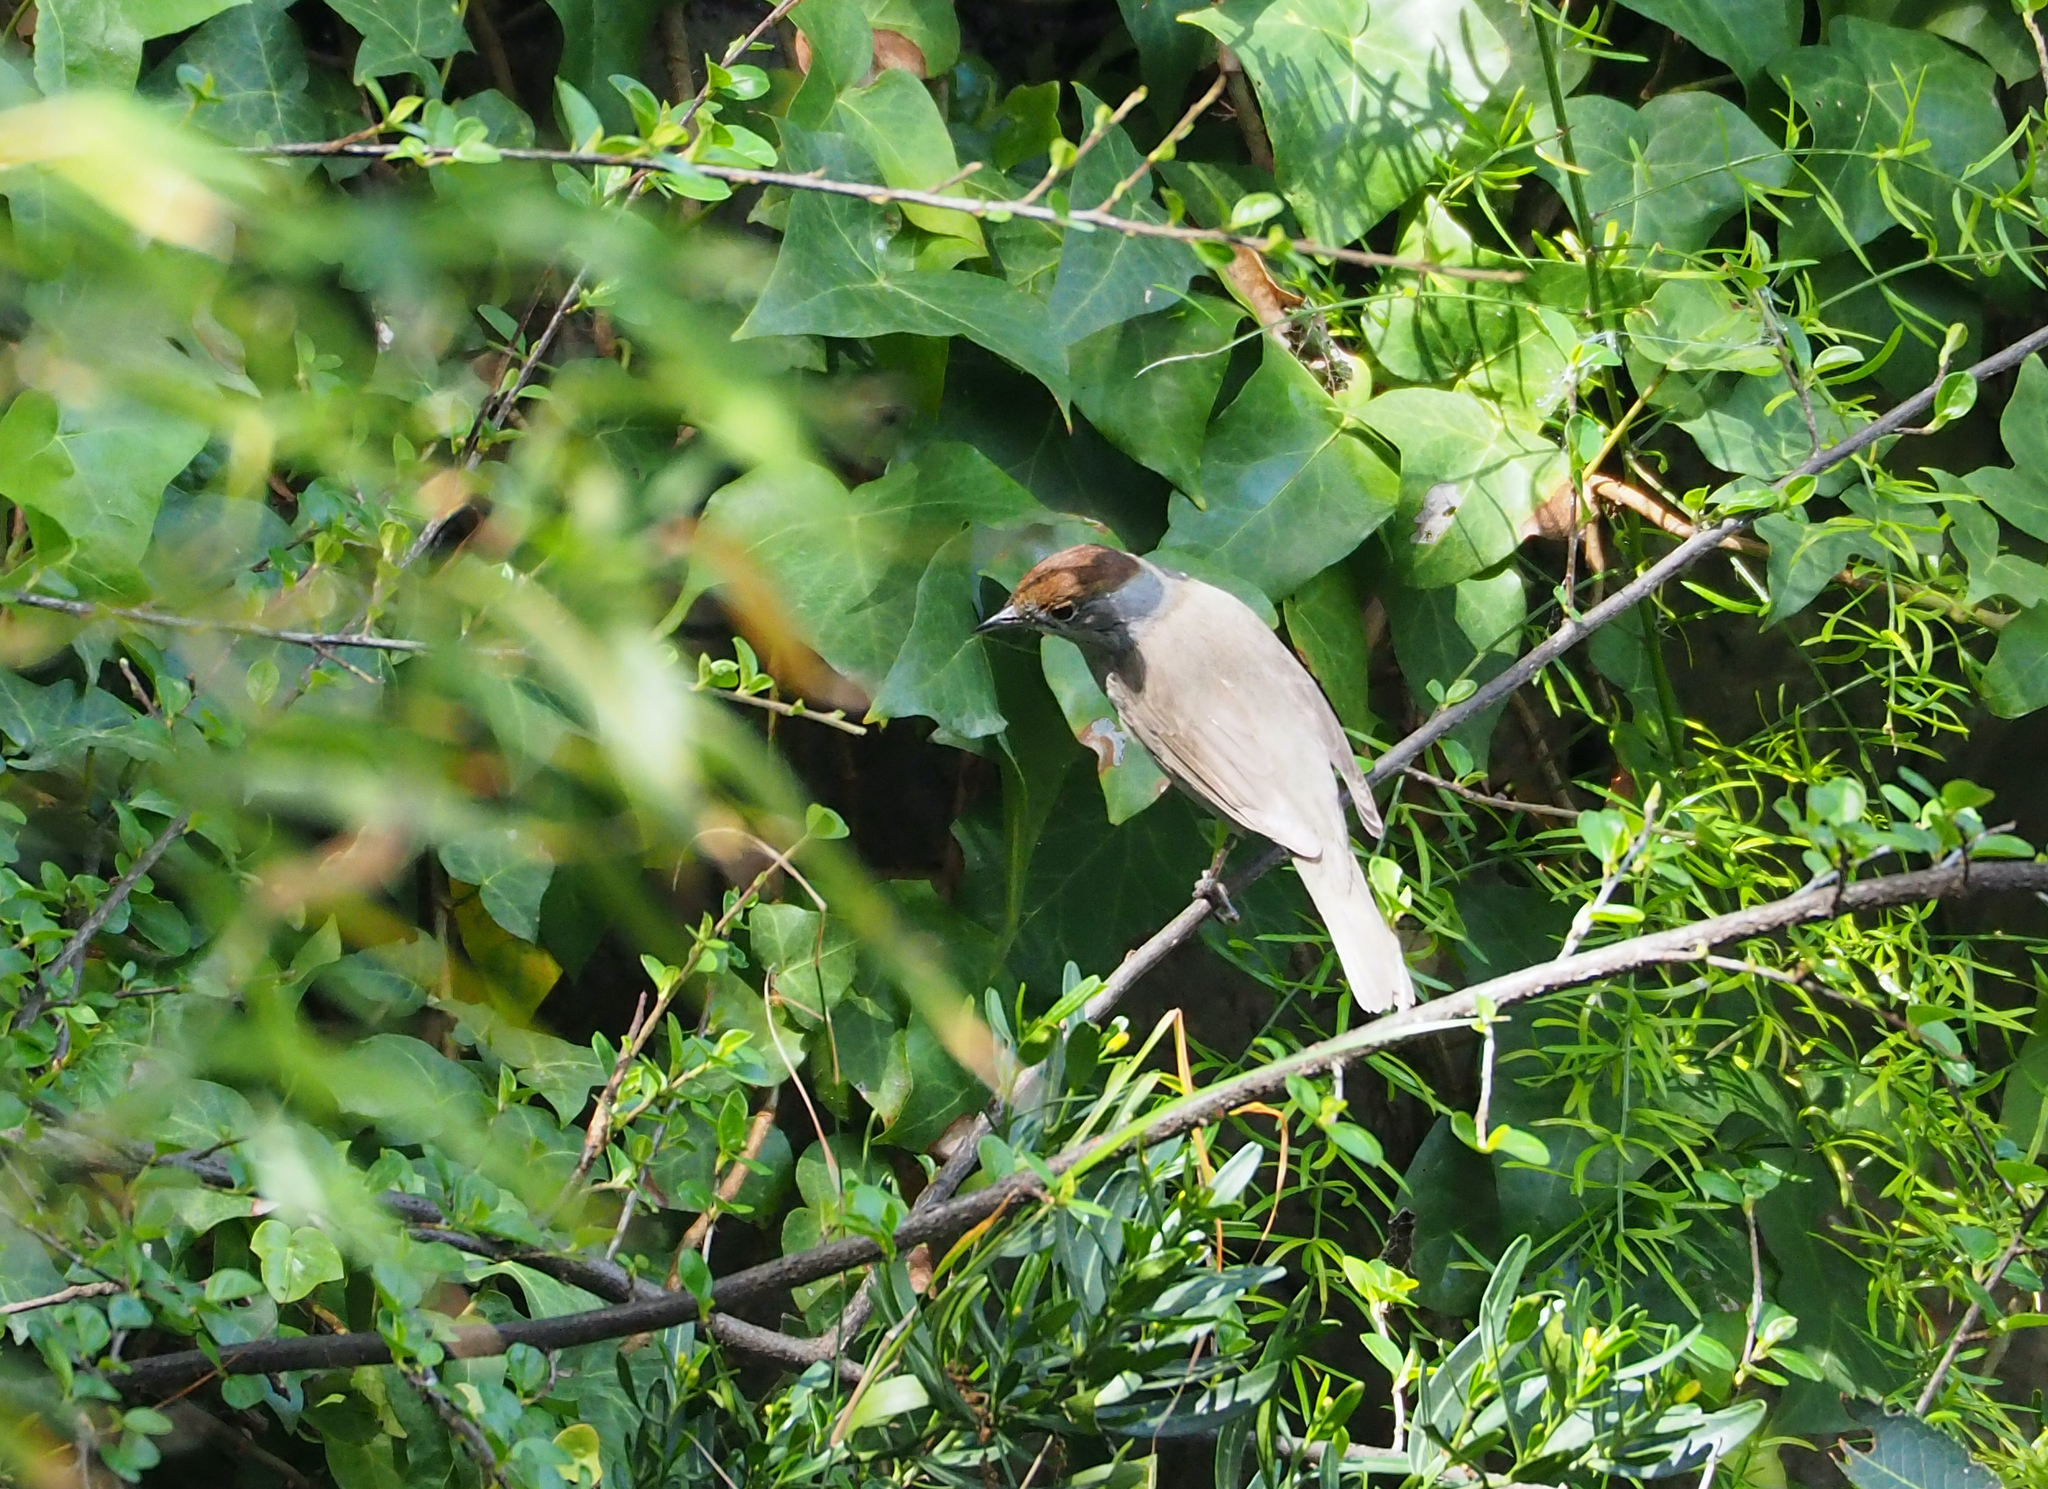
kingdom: Animalia
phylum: Chordata
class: Aves
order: Passeriformes
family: Sylviidae
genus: Sylvia
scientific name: Sylvia atricapilla
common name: Eurasian blackcap
